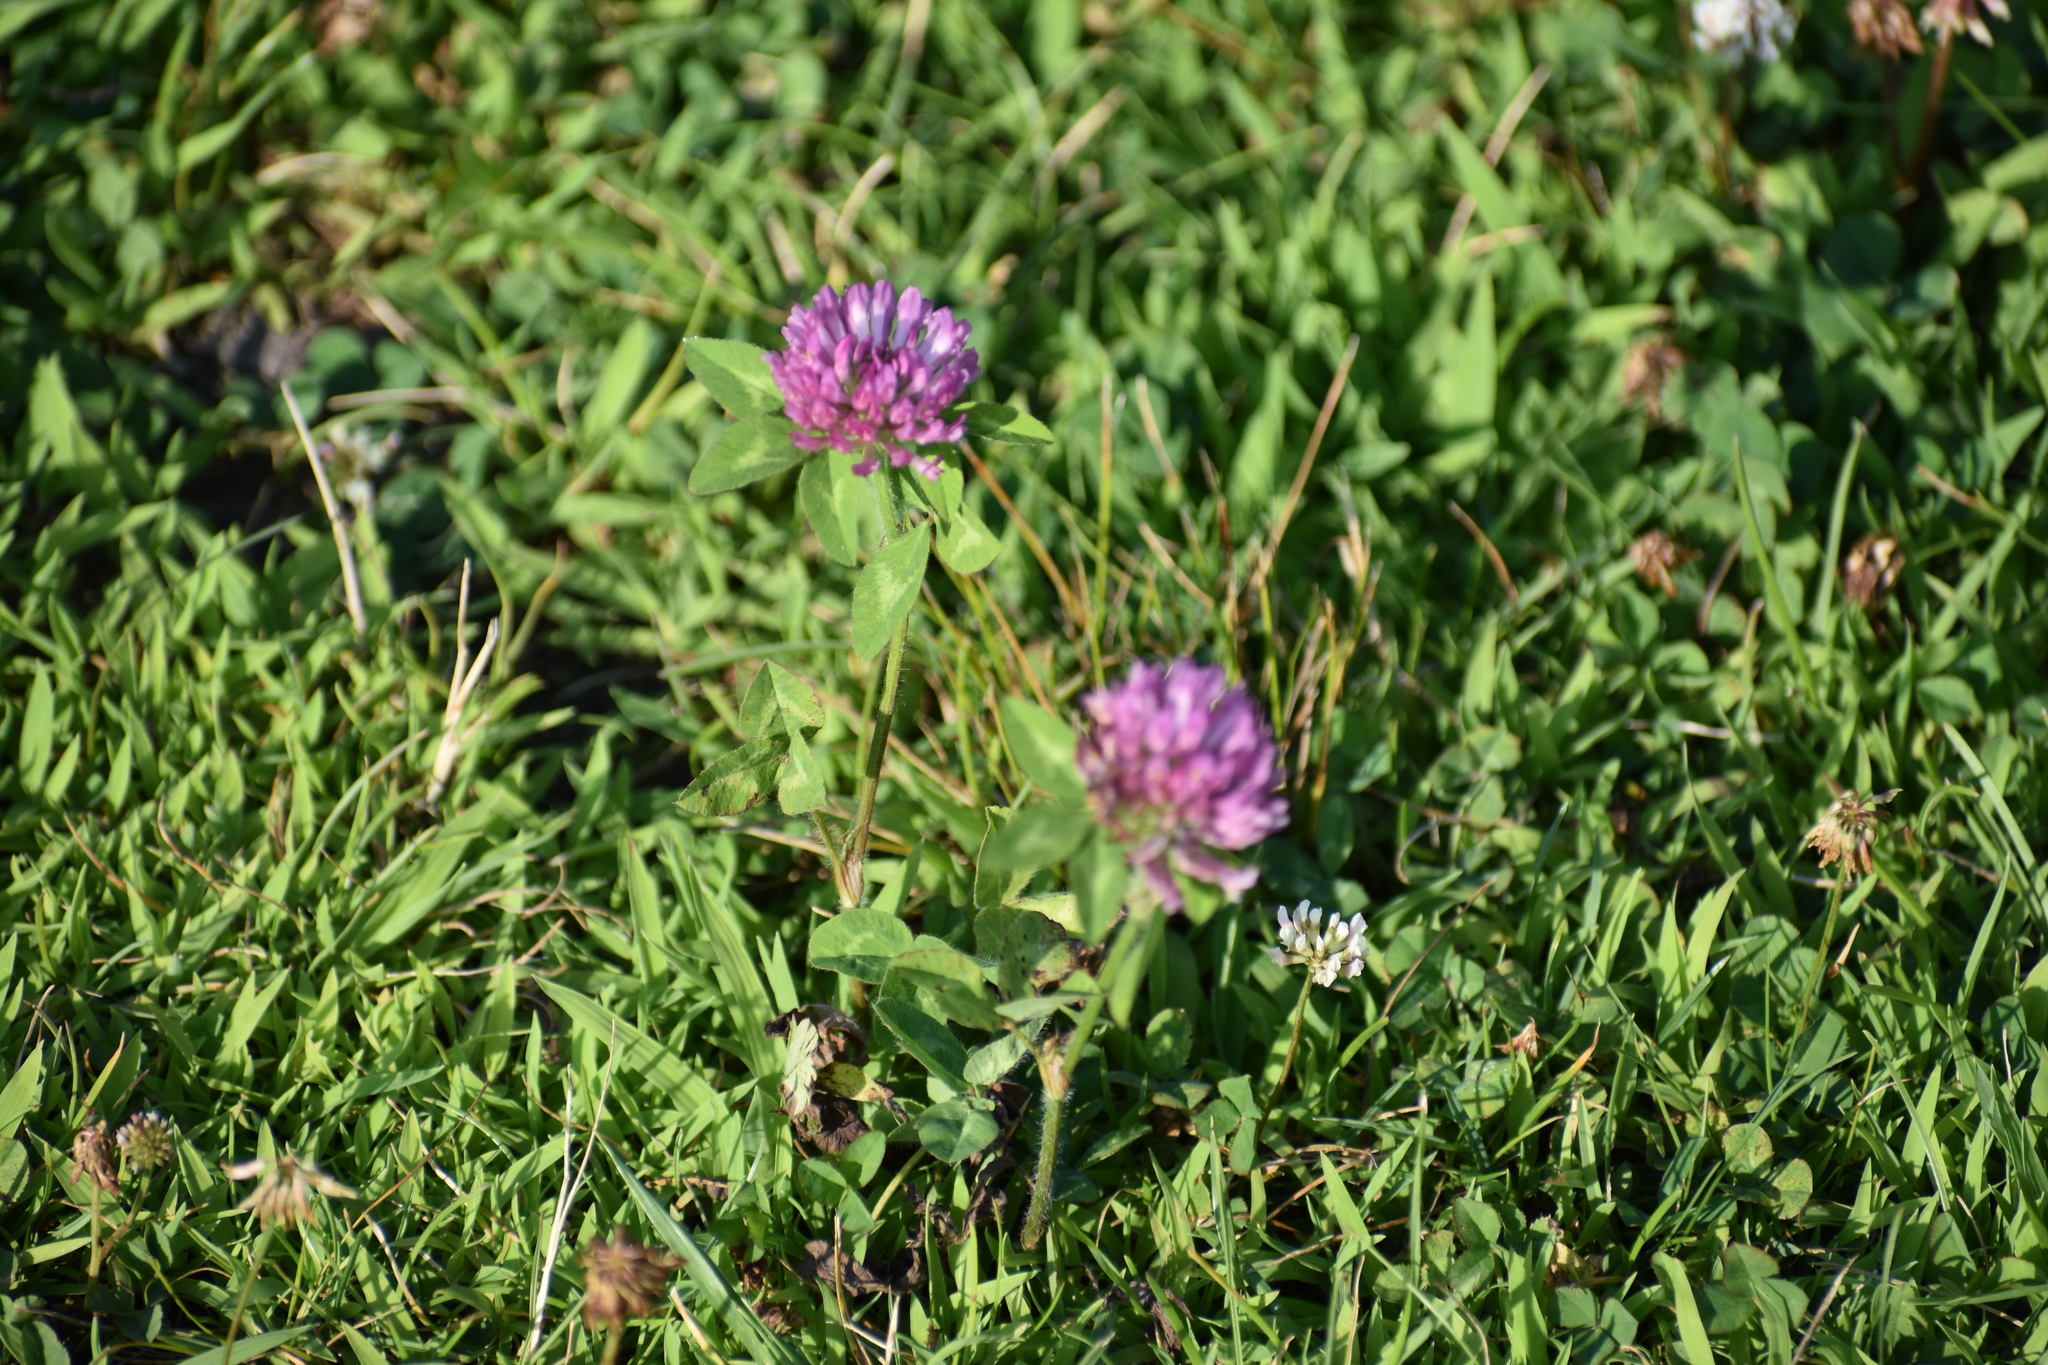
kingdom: Plantae
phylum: Tracheophyta
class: Magnoliopsida
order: Fabales
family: Fabaceae
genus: Trifolium
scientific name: Trifolium pratense
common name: Red clover
